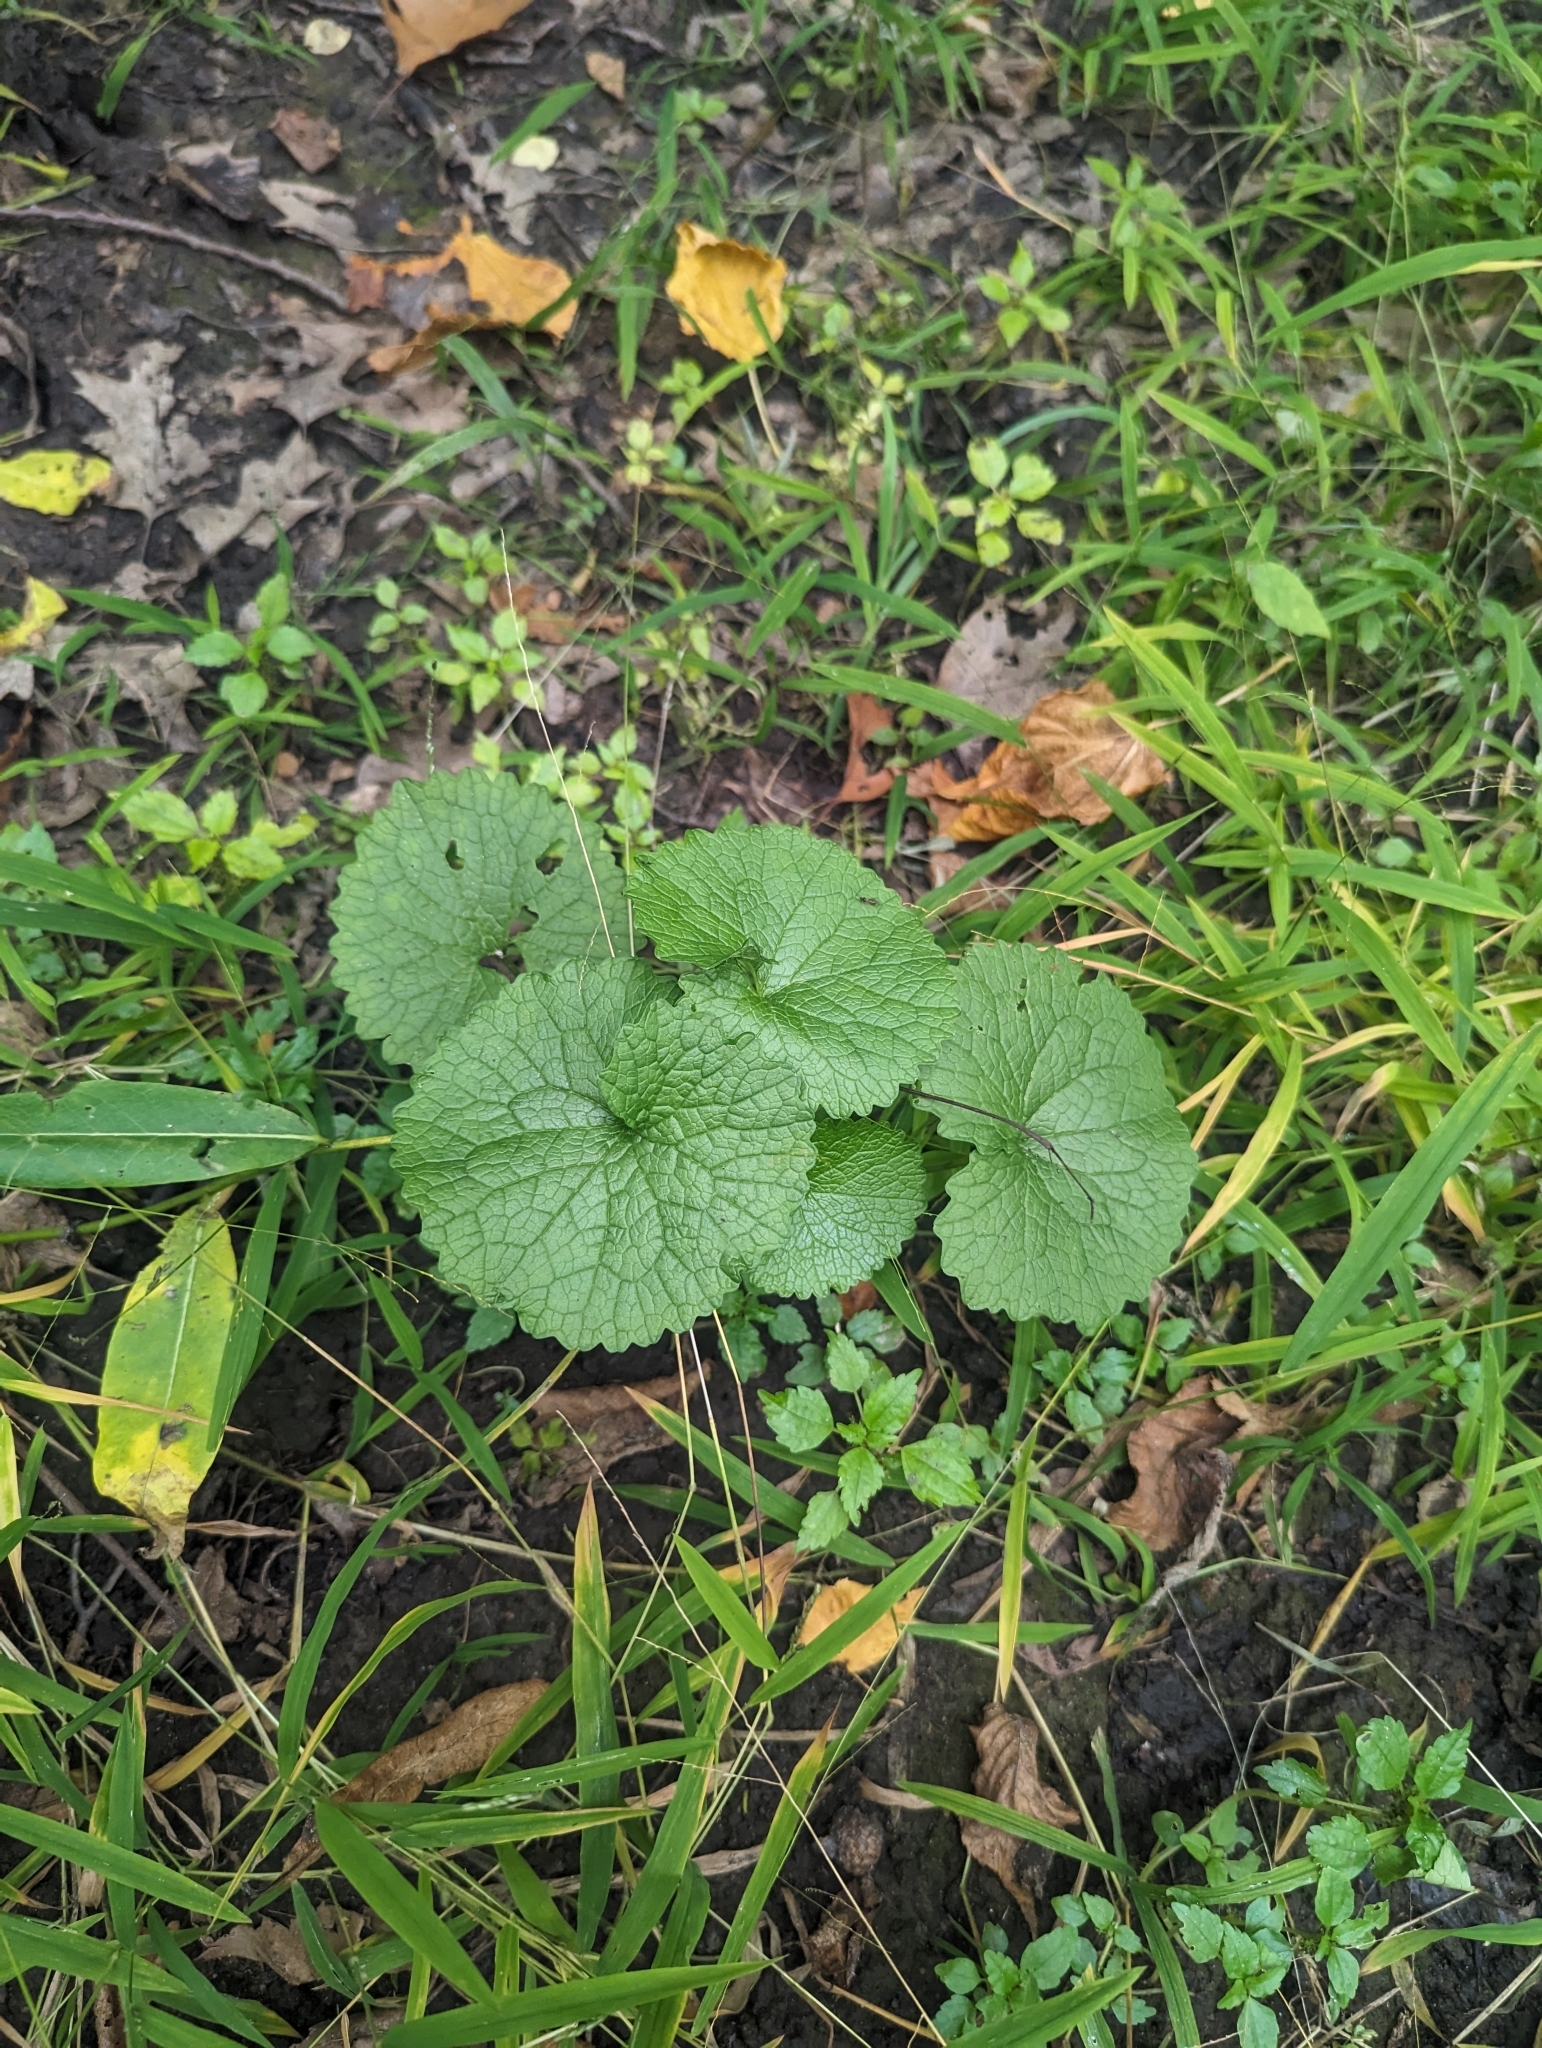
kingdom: Plantae
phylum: Tracheophyta
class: Magnoliopsida
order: Brassicales
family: Brassicaceae
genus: Alliaria
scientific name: Alliaria petiolata
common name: Garlic mustard
